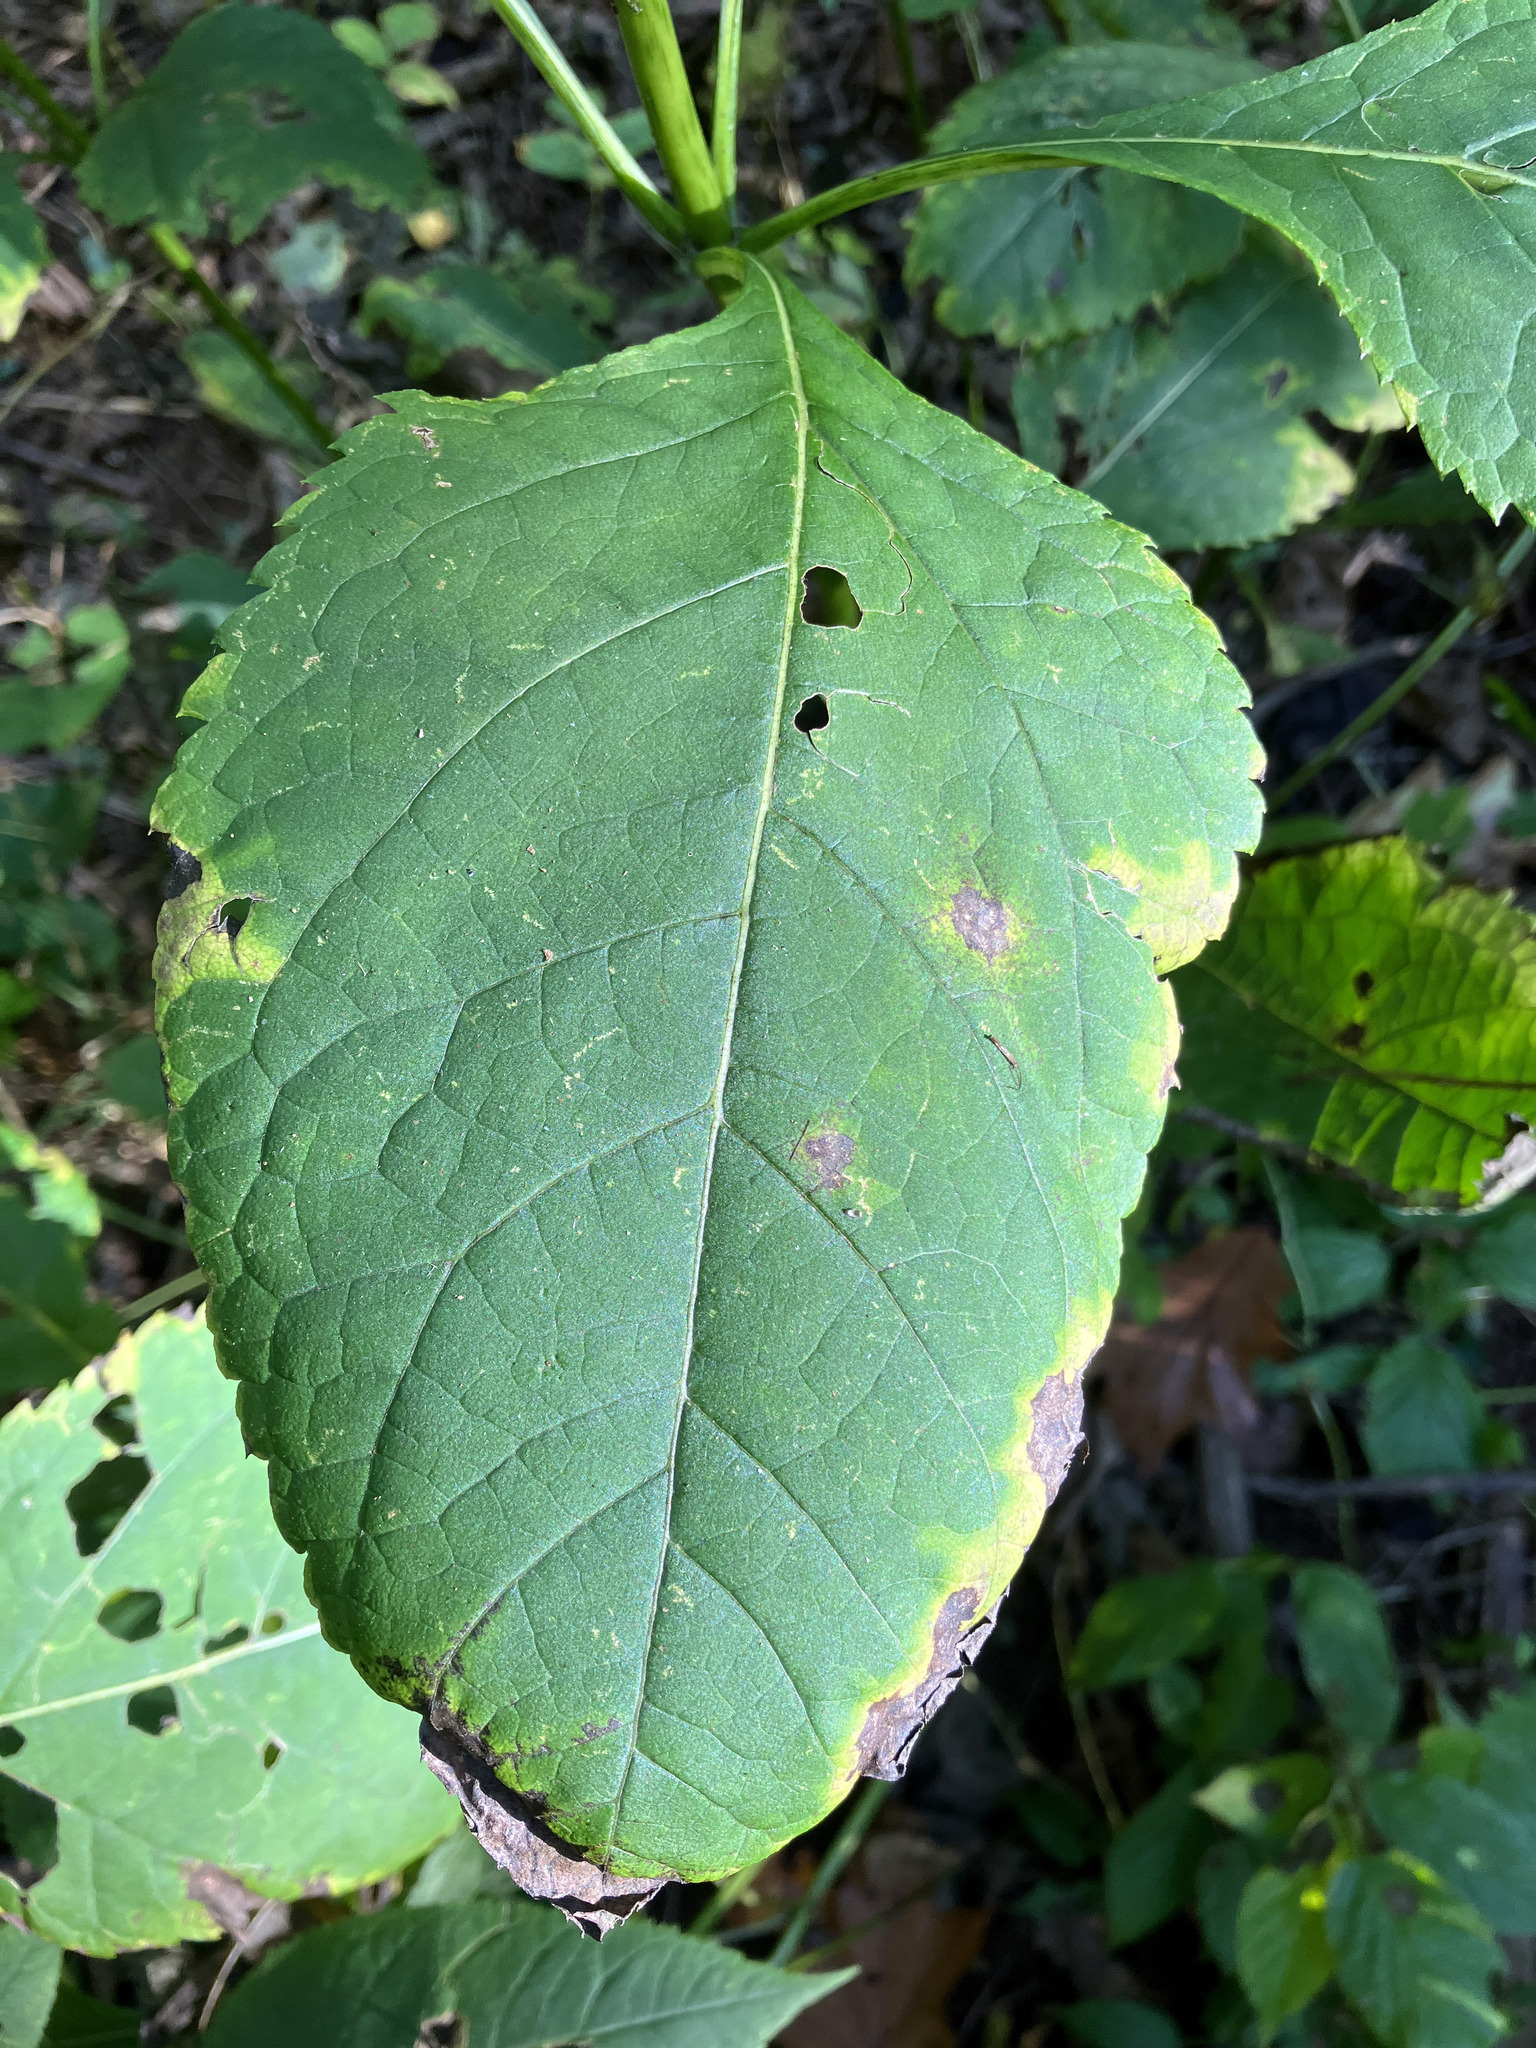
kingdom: Plantae
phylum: Tracheophyta
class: Magnoliopsida
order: Asterales
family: Asteraceae
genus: Eutrochium
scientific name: Eutrochium purpureum
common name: Gravelroot
